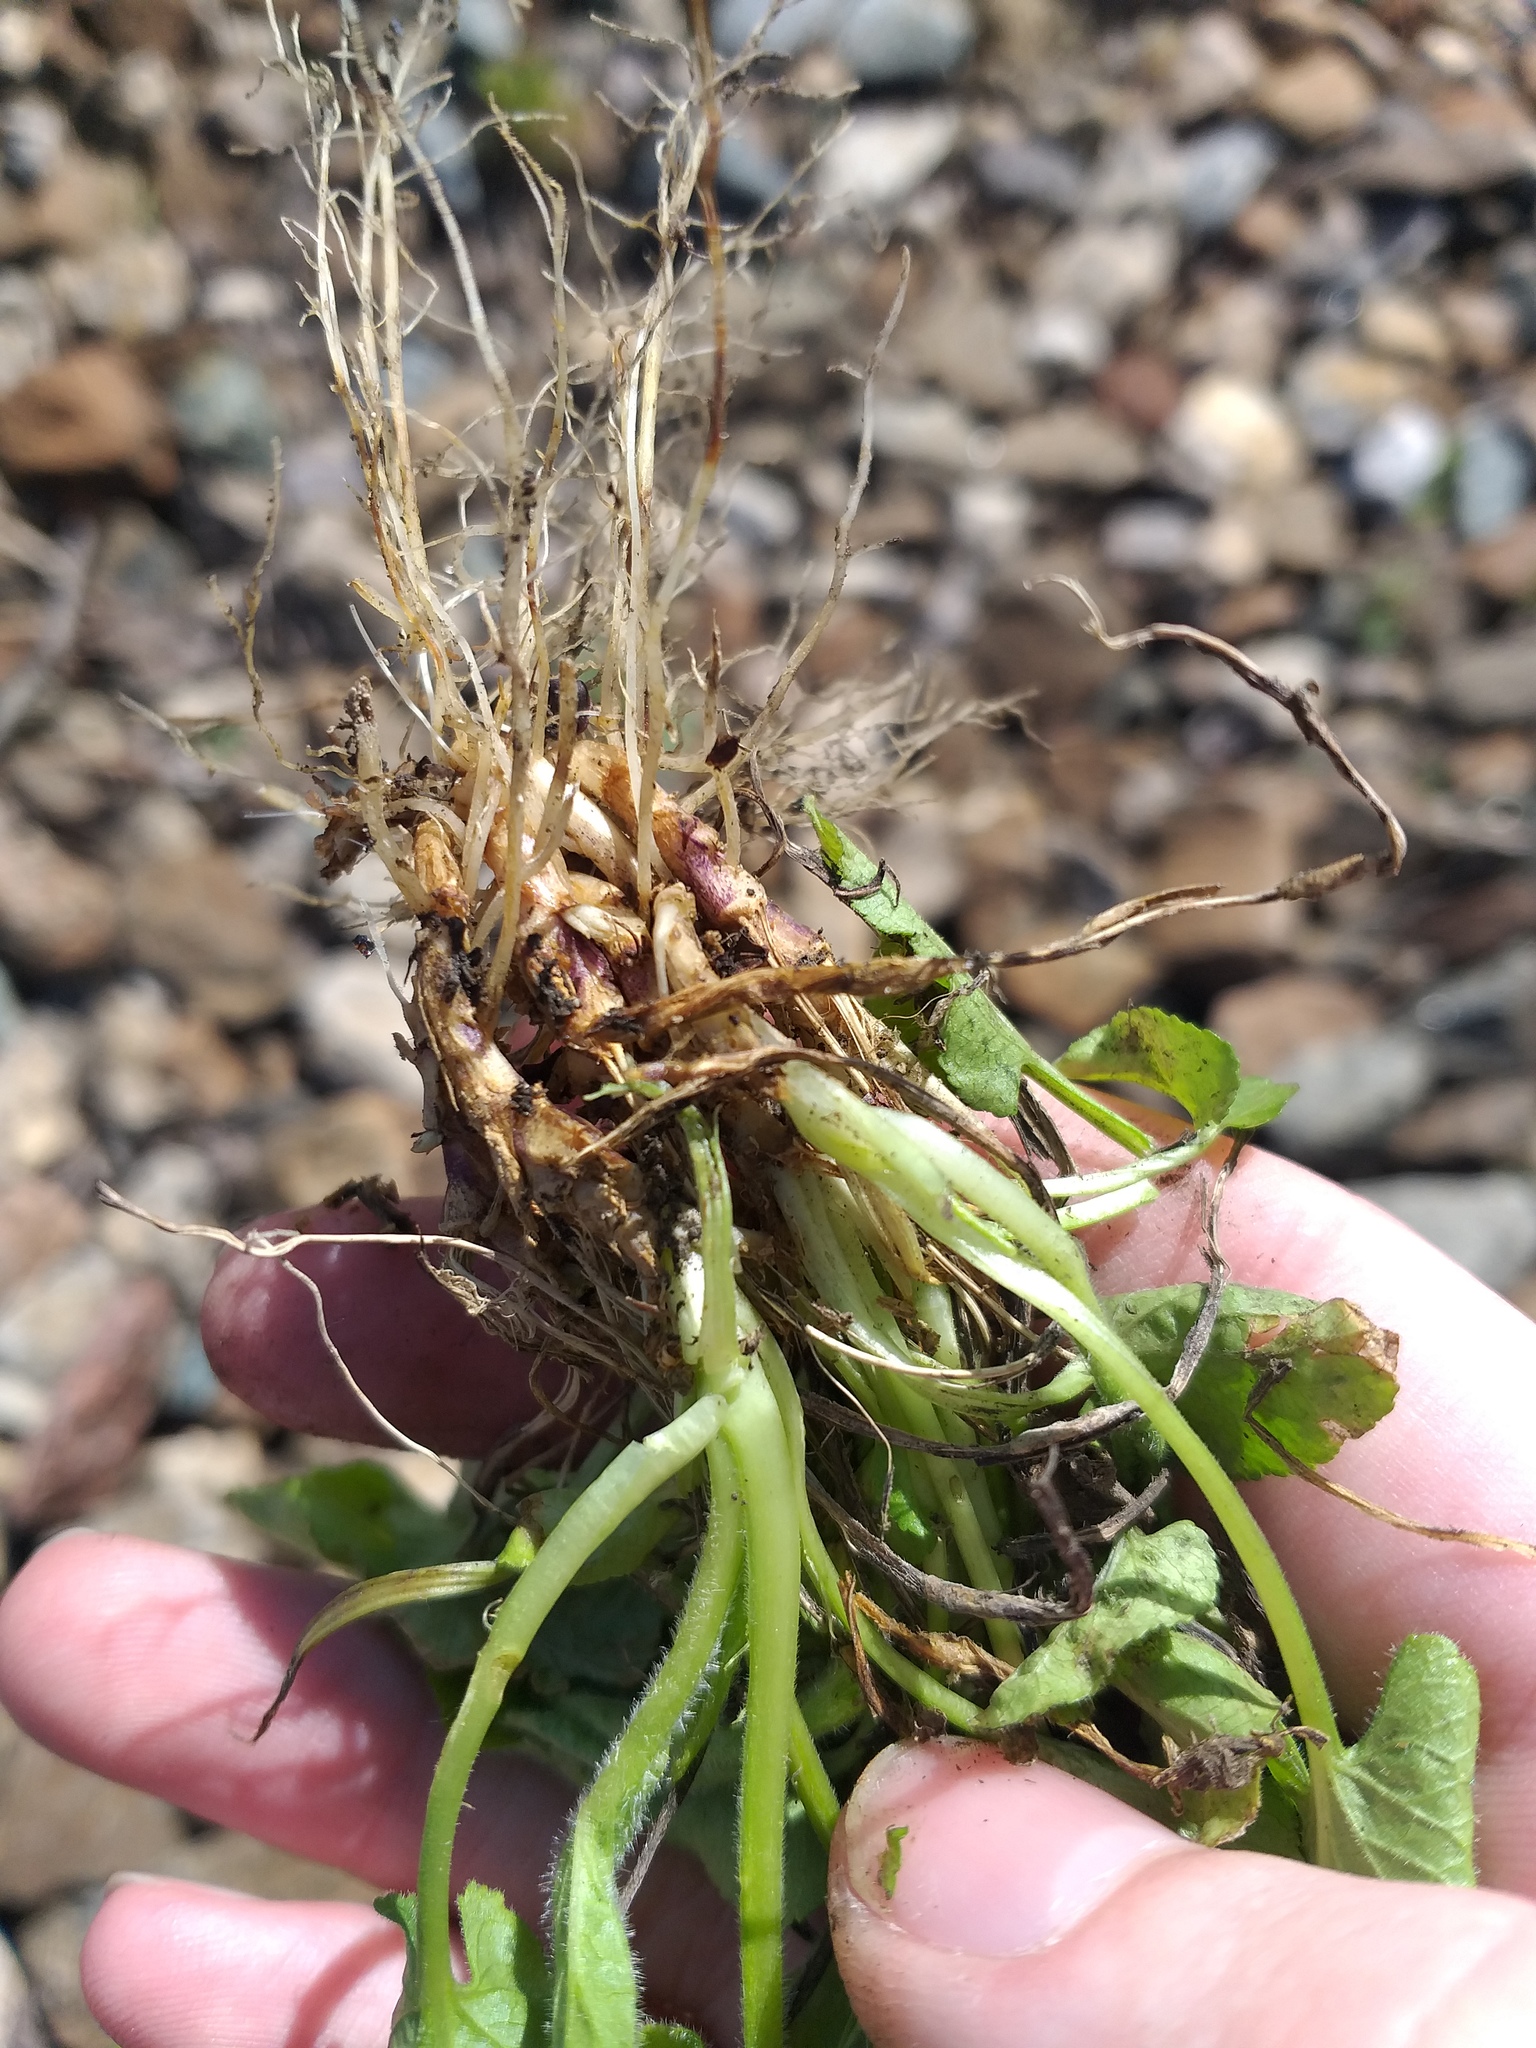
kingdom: Plantae
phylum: Tracheophyta
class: Magnoliopsida
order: Malpighiales
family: Violaceae
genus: Viola
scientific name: Viola hirta
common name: Hairy violet
